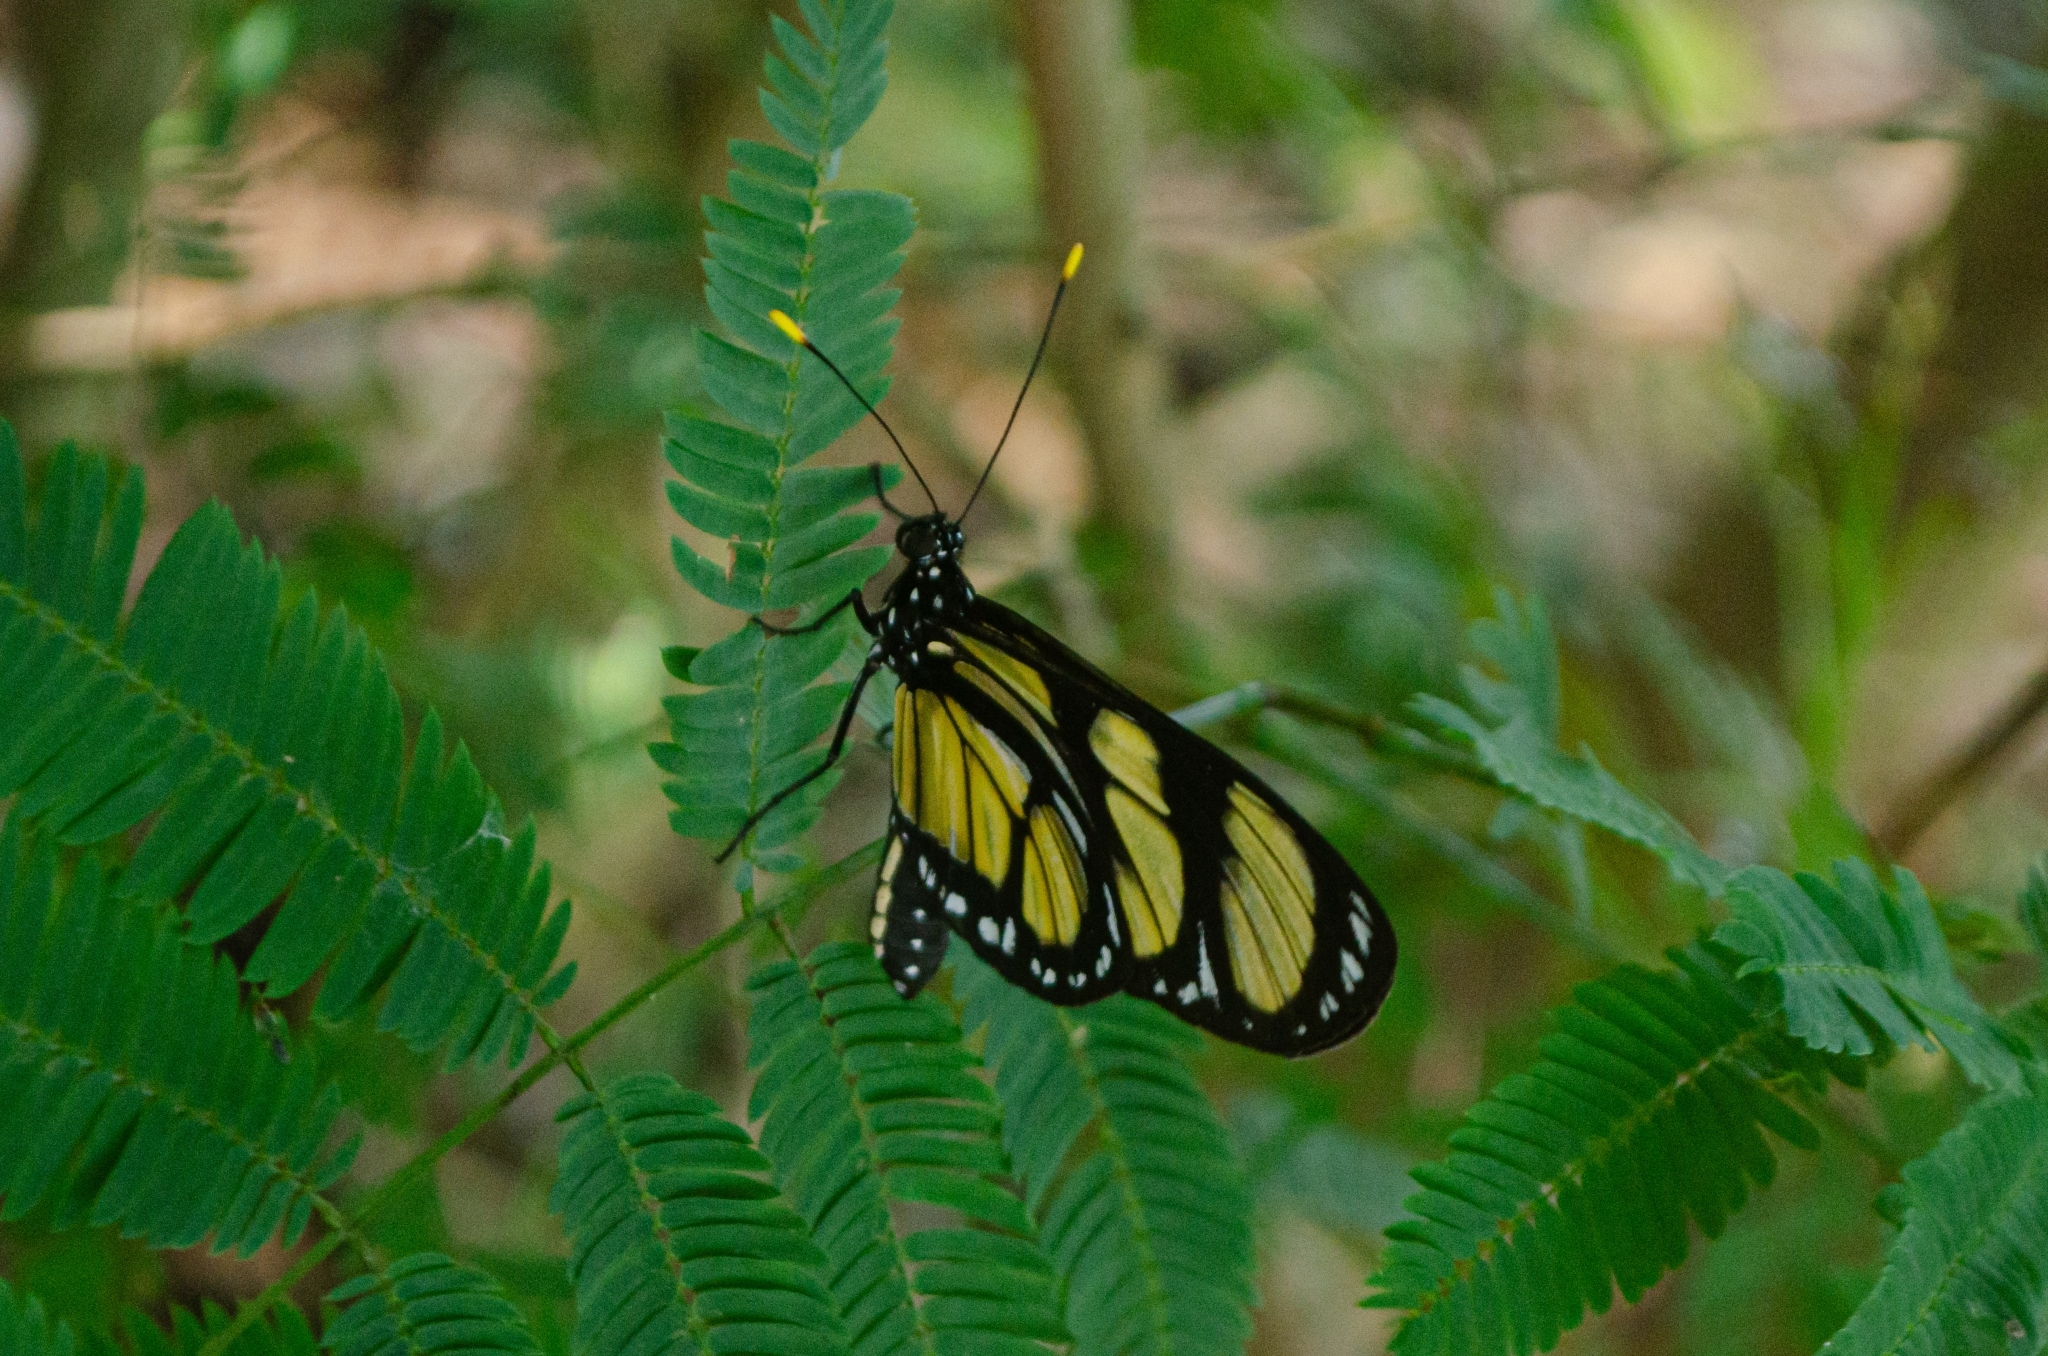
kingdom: Animalia
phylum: Arthropoda
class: Insecta
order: Lepidoptera
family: Nymphalidae
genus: Methona
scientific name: Methona themisto
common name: Themisto amberwing
